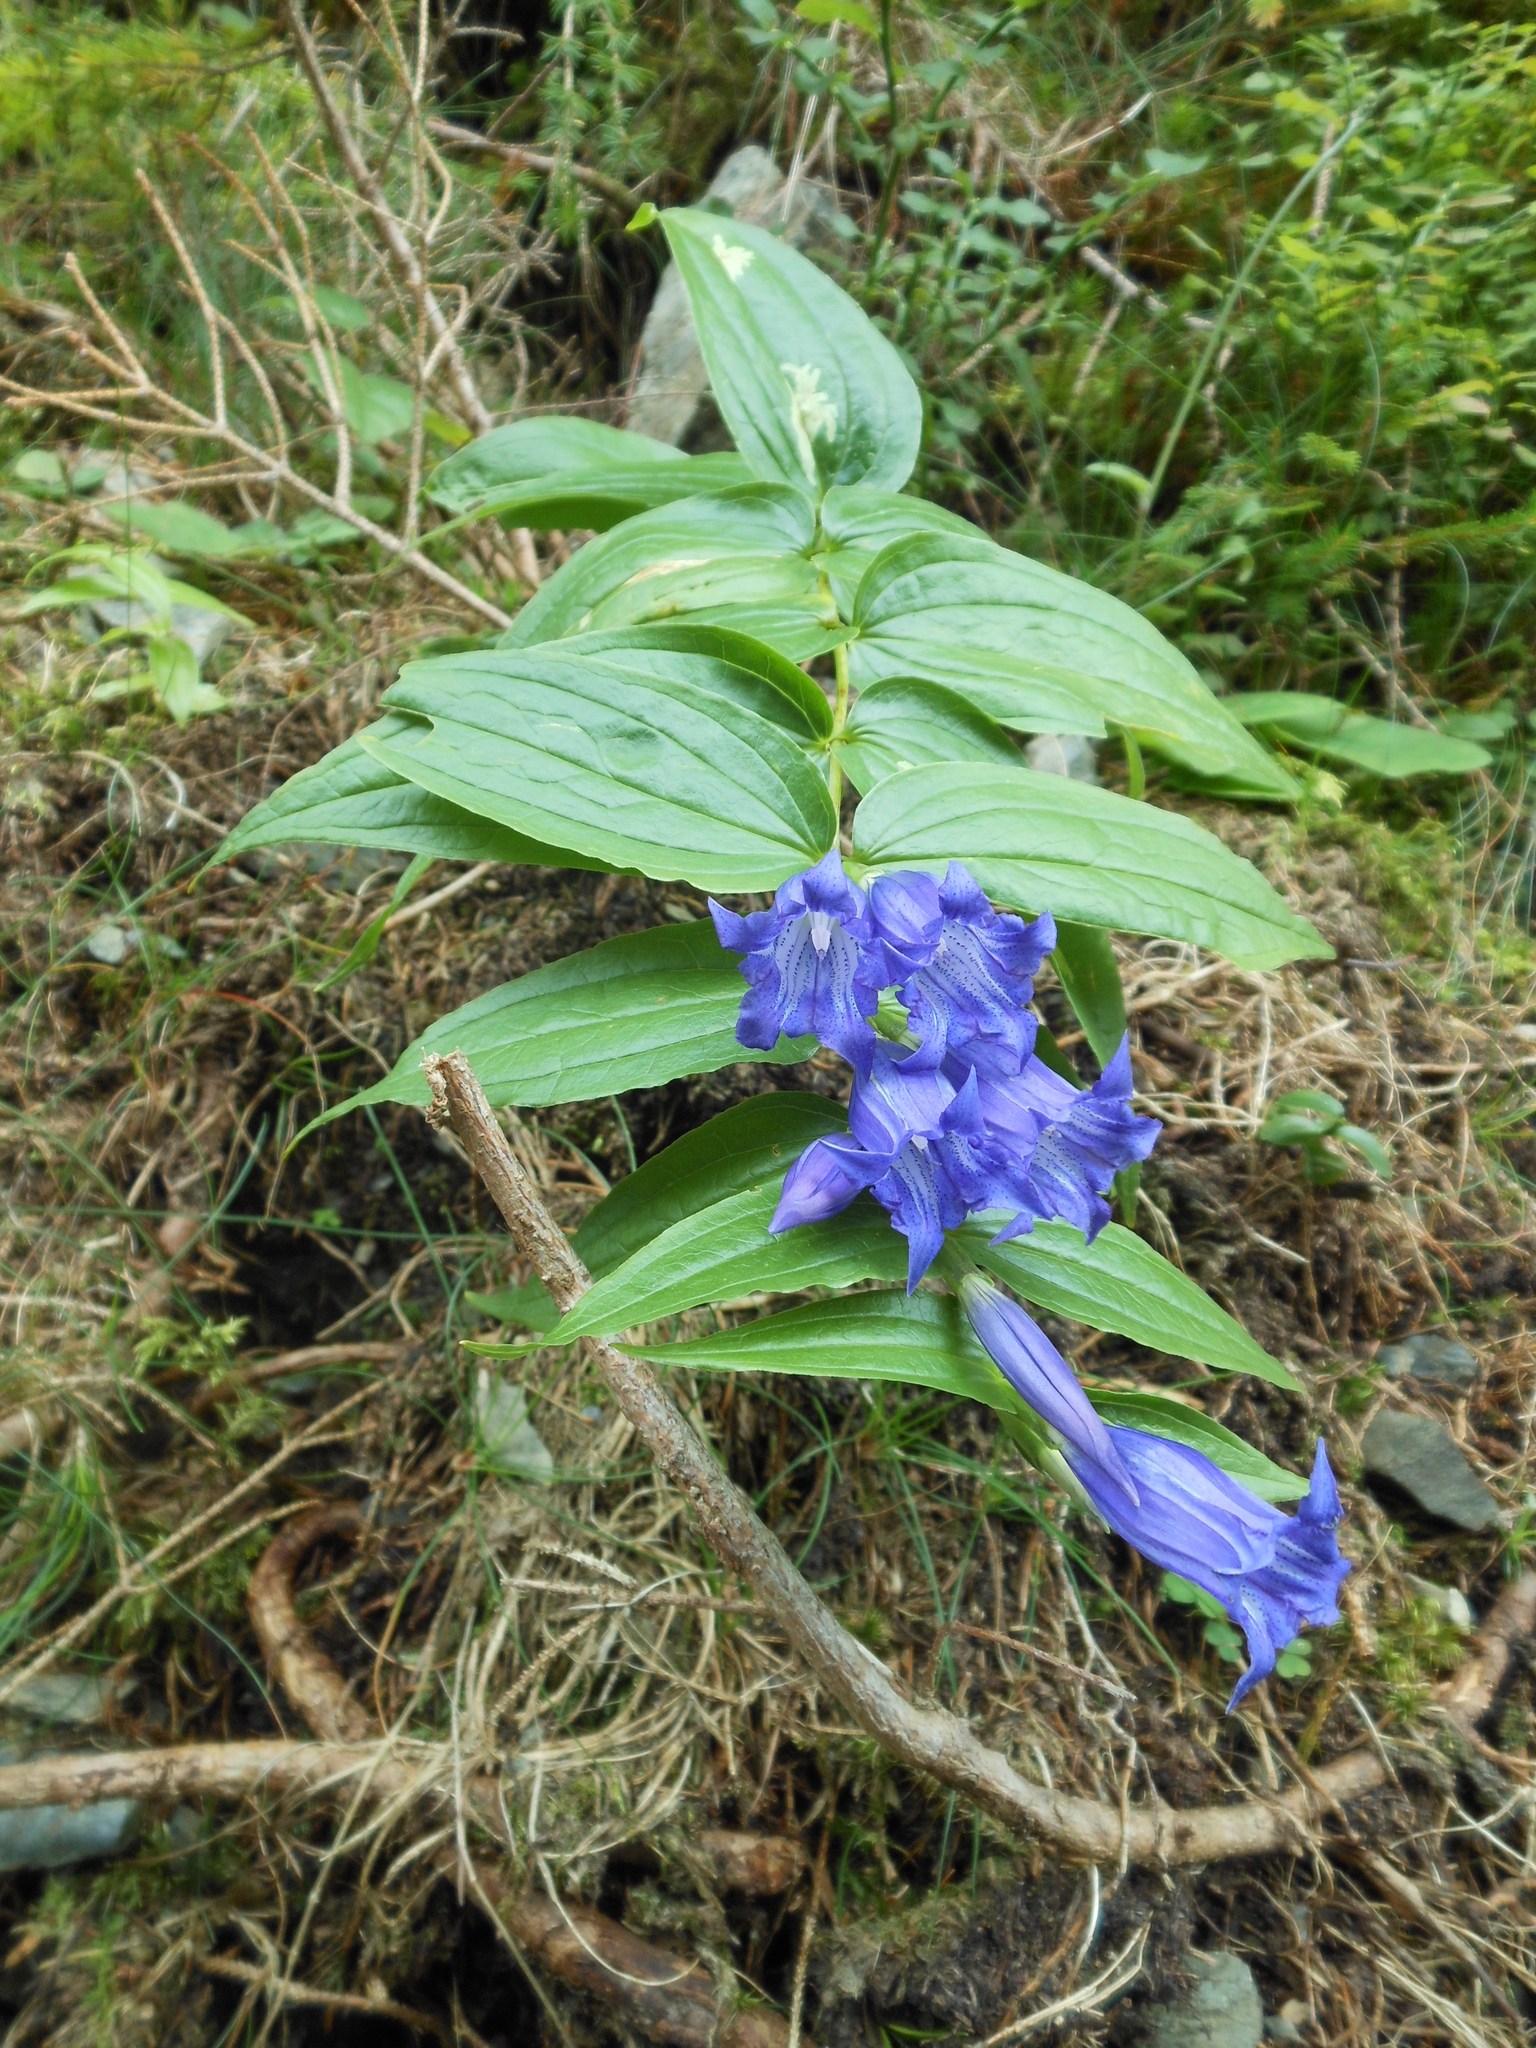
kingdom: Plantae
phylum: Tracheophyta
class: Magnoliopsida
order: Gentianales
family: Gentianaceae
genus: Gentiana
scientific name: Gentiana asclepiadea
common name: Willow gentian
